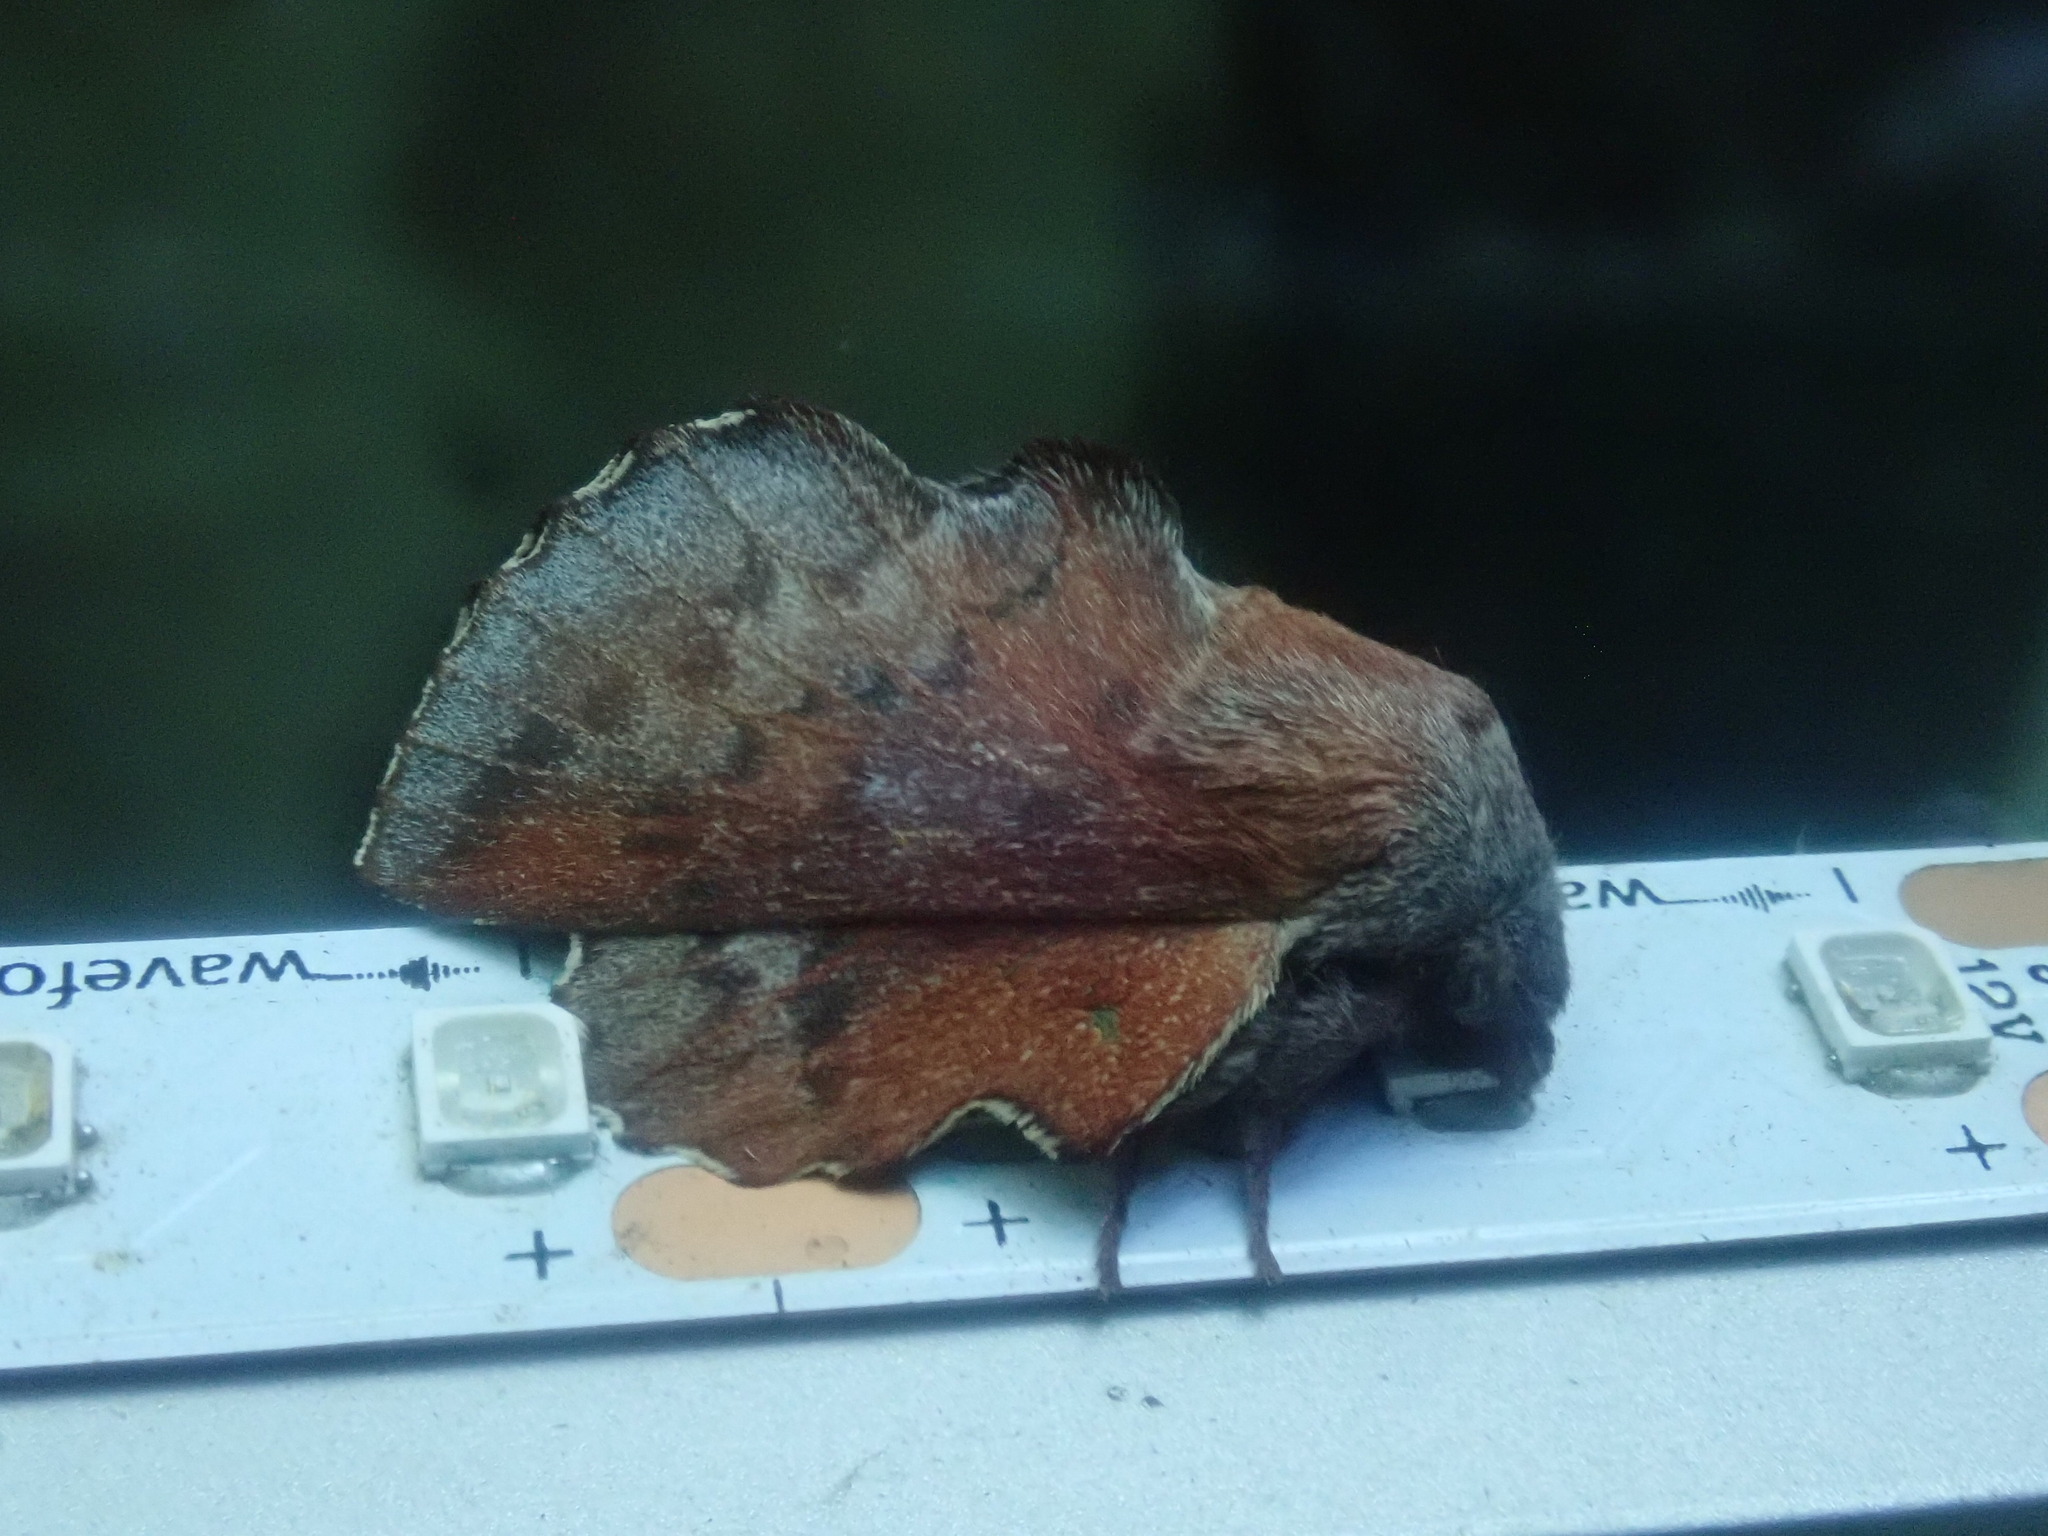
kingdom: Animalia
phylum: Arthropoda
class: Insecta
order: Lepidoptera
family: Lasiocampidae
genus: Phyllodesma
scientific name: Phyllodesma americana
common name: American lappet moth
